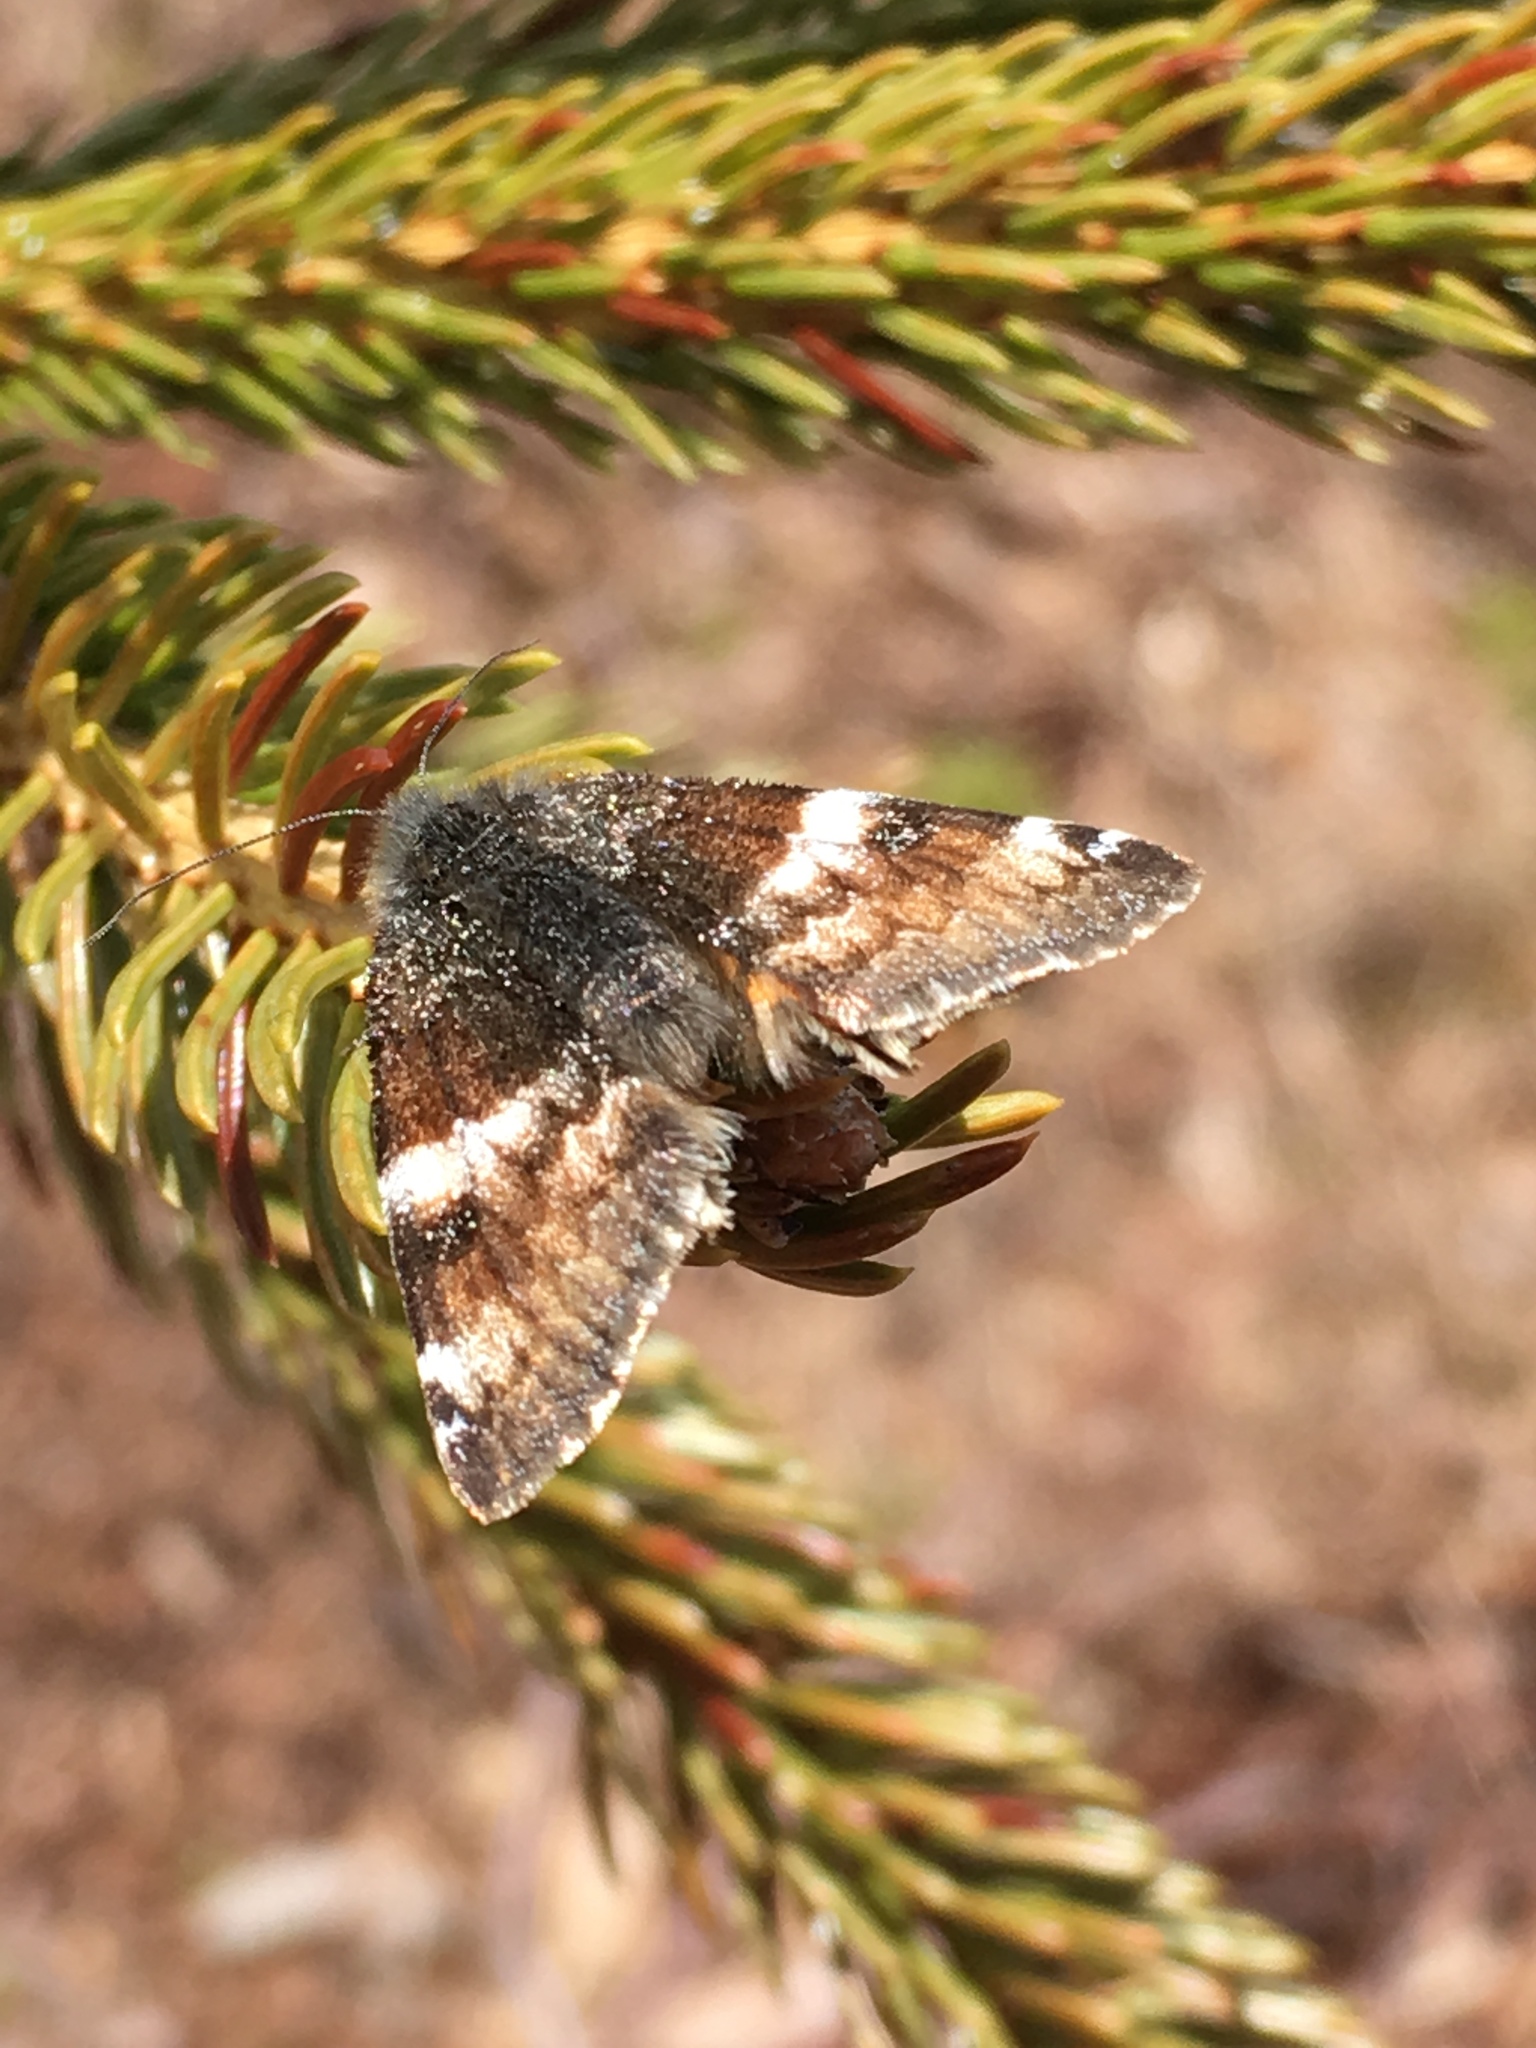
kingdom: Animalia
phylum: Arthropoda
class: Insecta
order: Lepidoptera
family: Geometridae
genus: Archiearis
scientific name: Archiearis infans
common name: First born geometer
